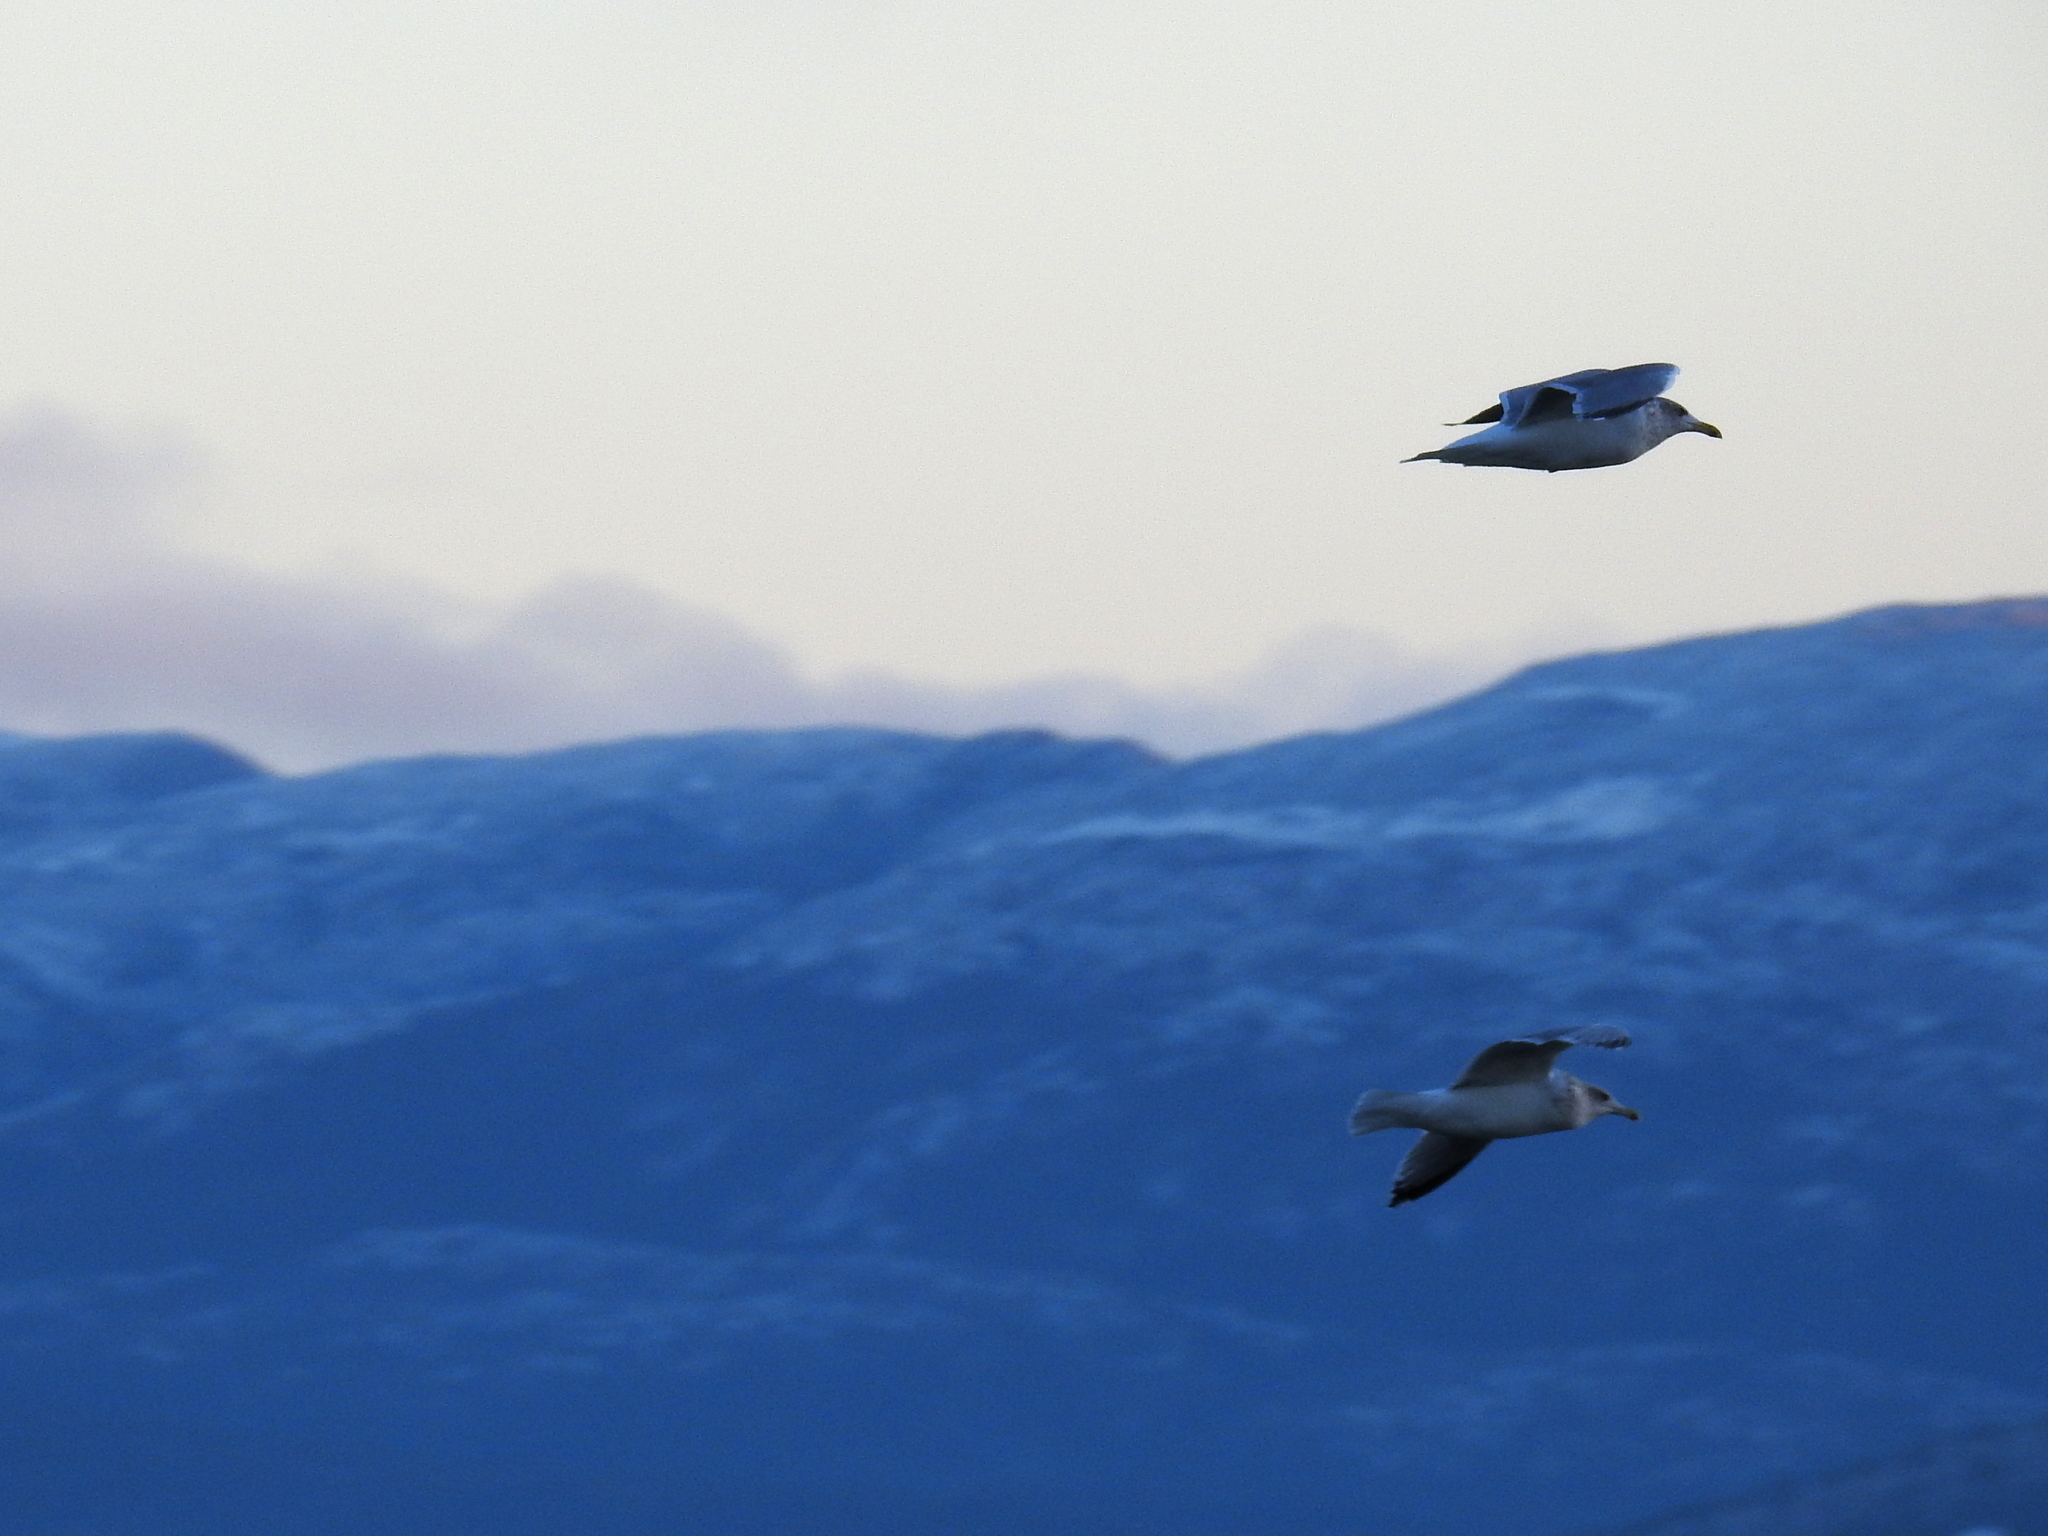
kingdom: Animalia
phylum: Chordata
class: Aves
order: Charadriiformes
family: Laridae
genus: Larus
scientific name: Larus argentatus
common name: Herring gull
